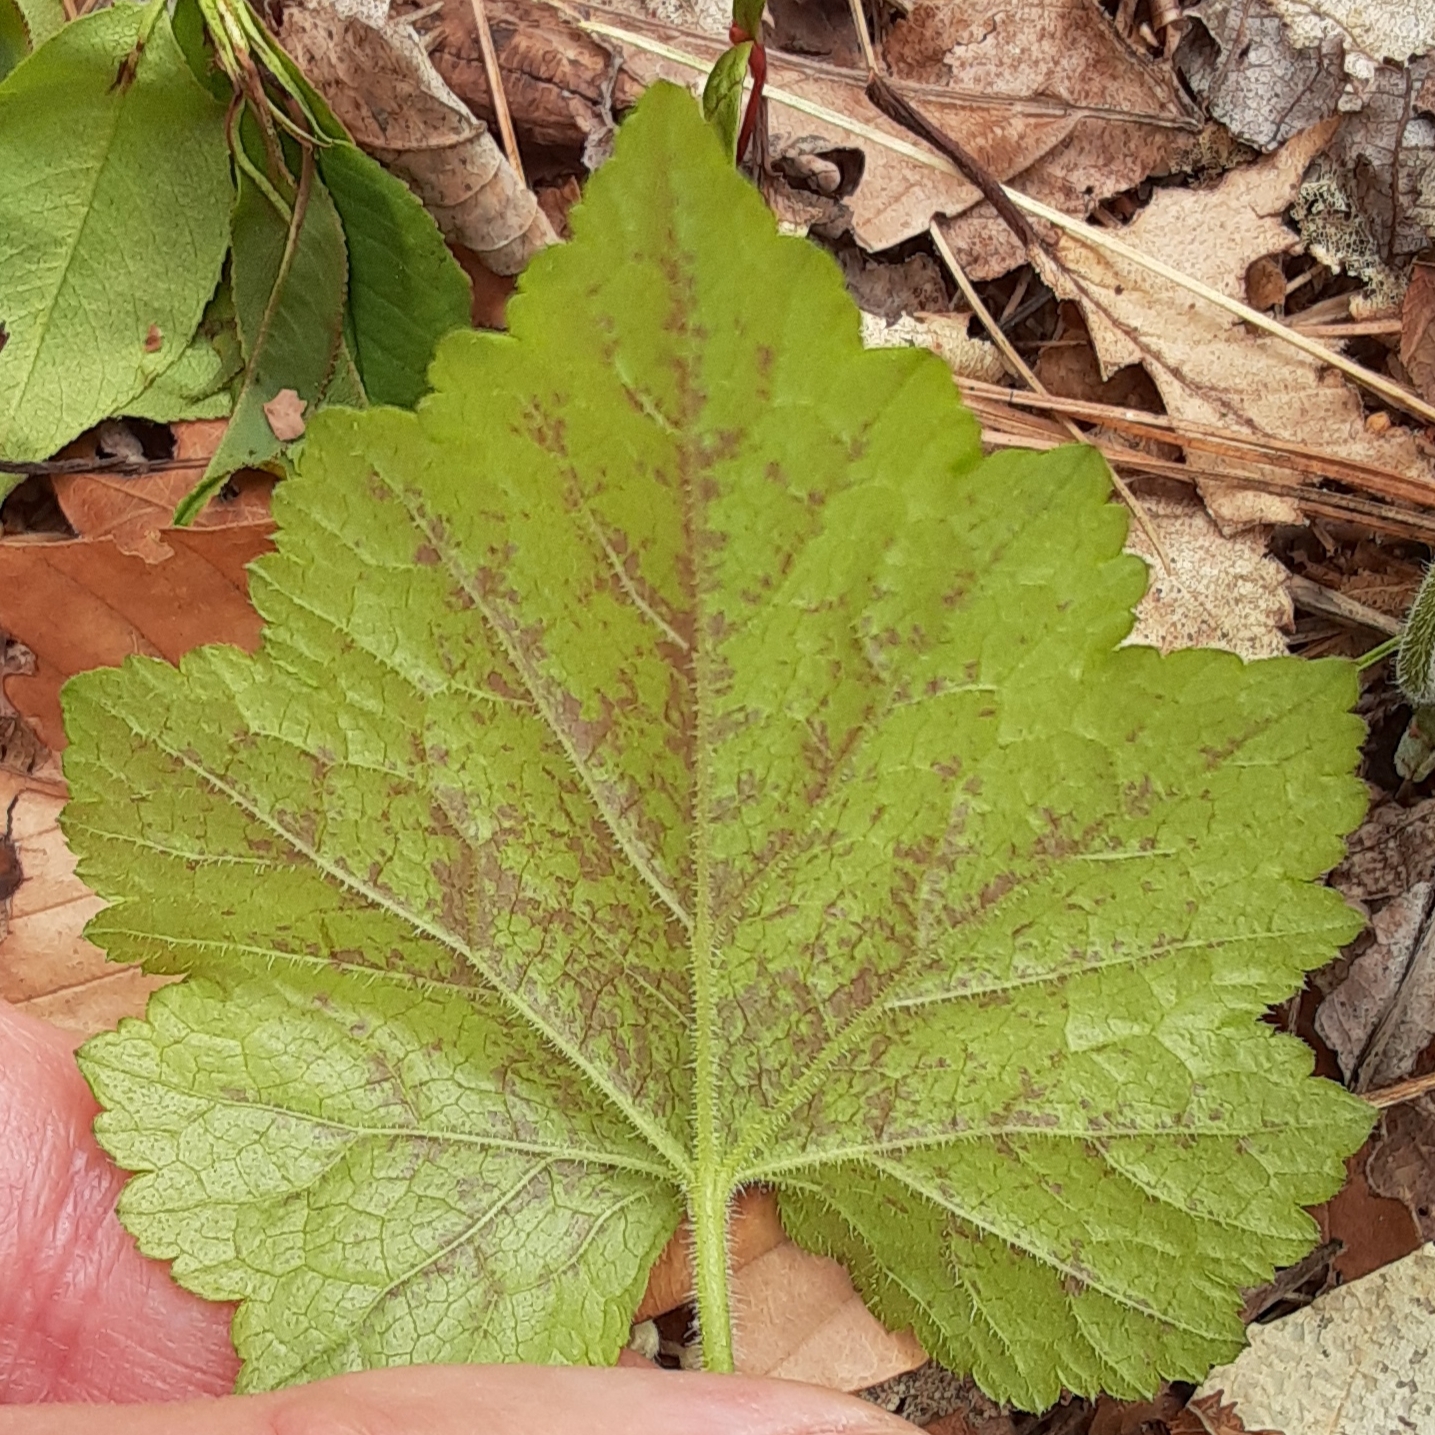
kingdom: Plantae
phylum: Tracheophyta
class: Magnoliopsida
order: Saxifragales
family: Saxifragaceae
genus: Tiarella
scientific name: Tiarella stolonifera
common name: Stoloniferous foamflower
